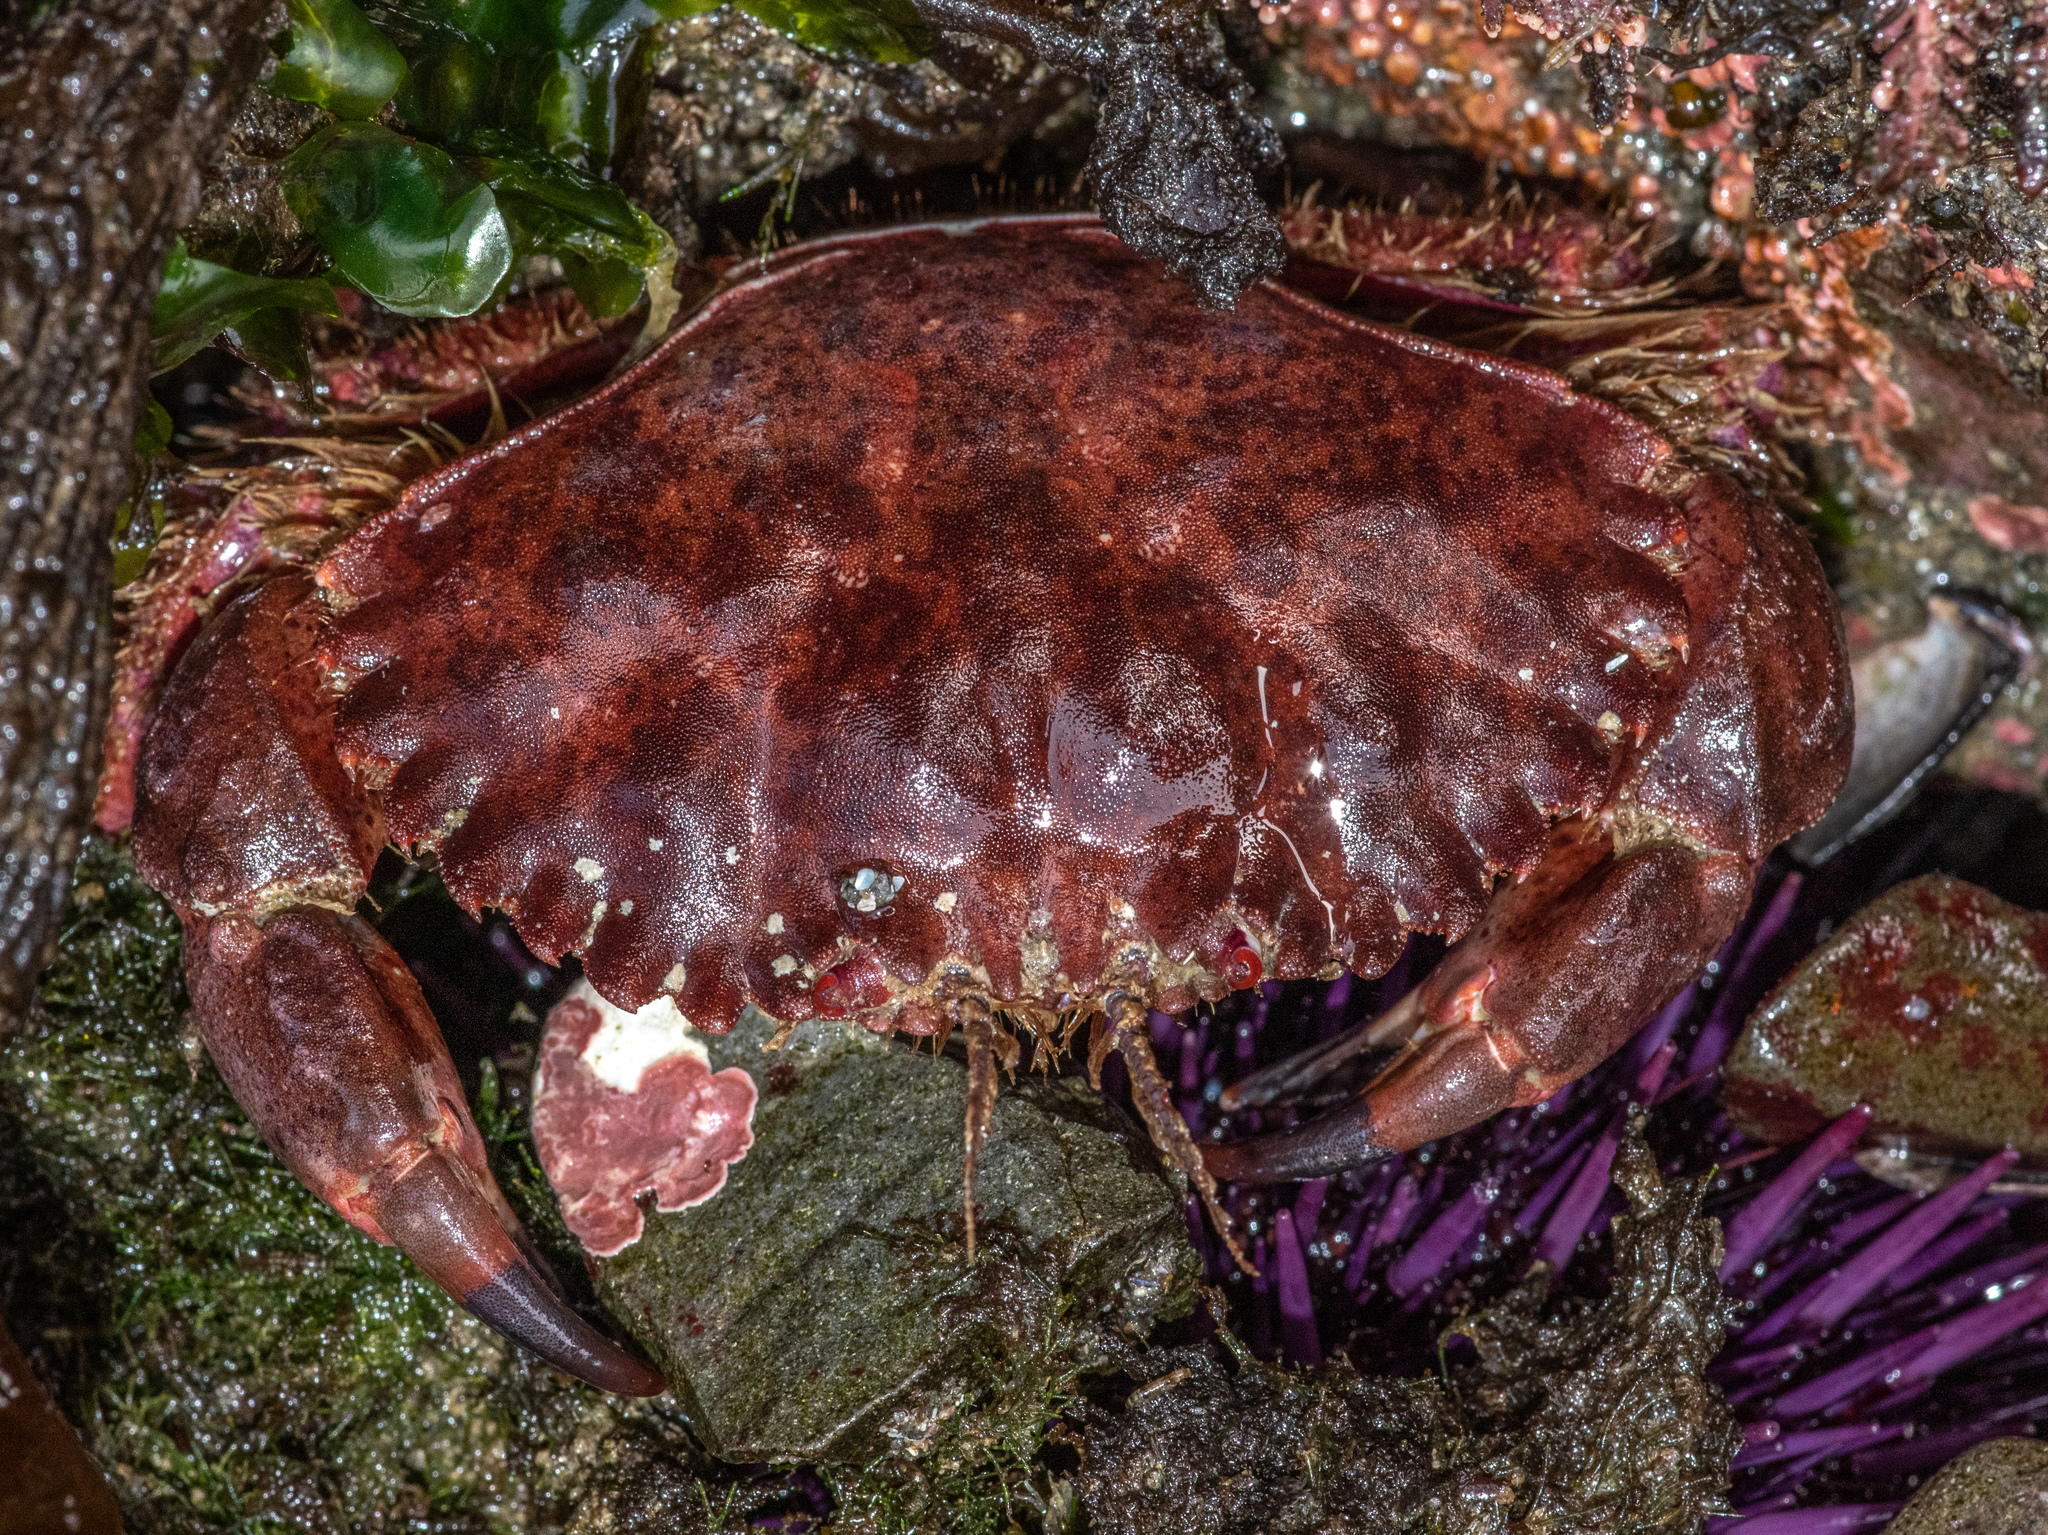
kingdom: Animalia
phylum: Arthropoda
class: Malacostraca
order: Decapoda
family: Cancridae
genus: Romaleon
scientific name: Romaleon antennarium
